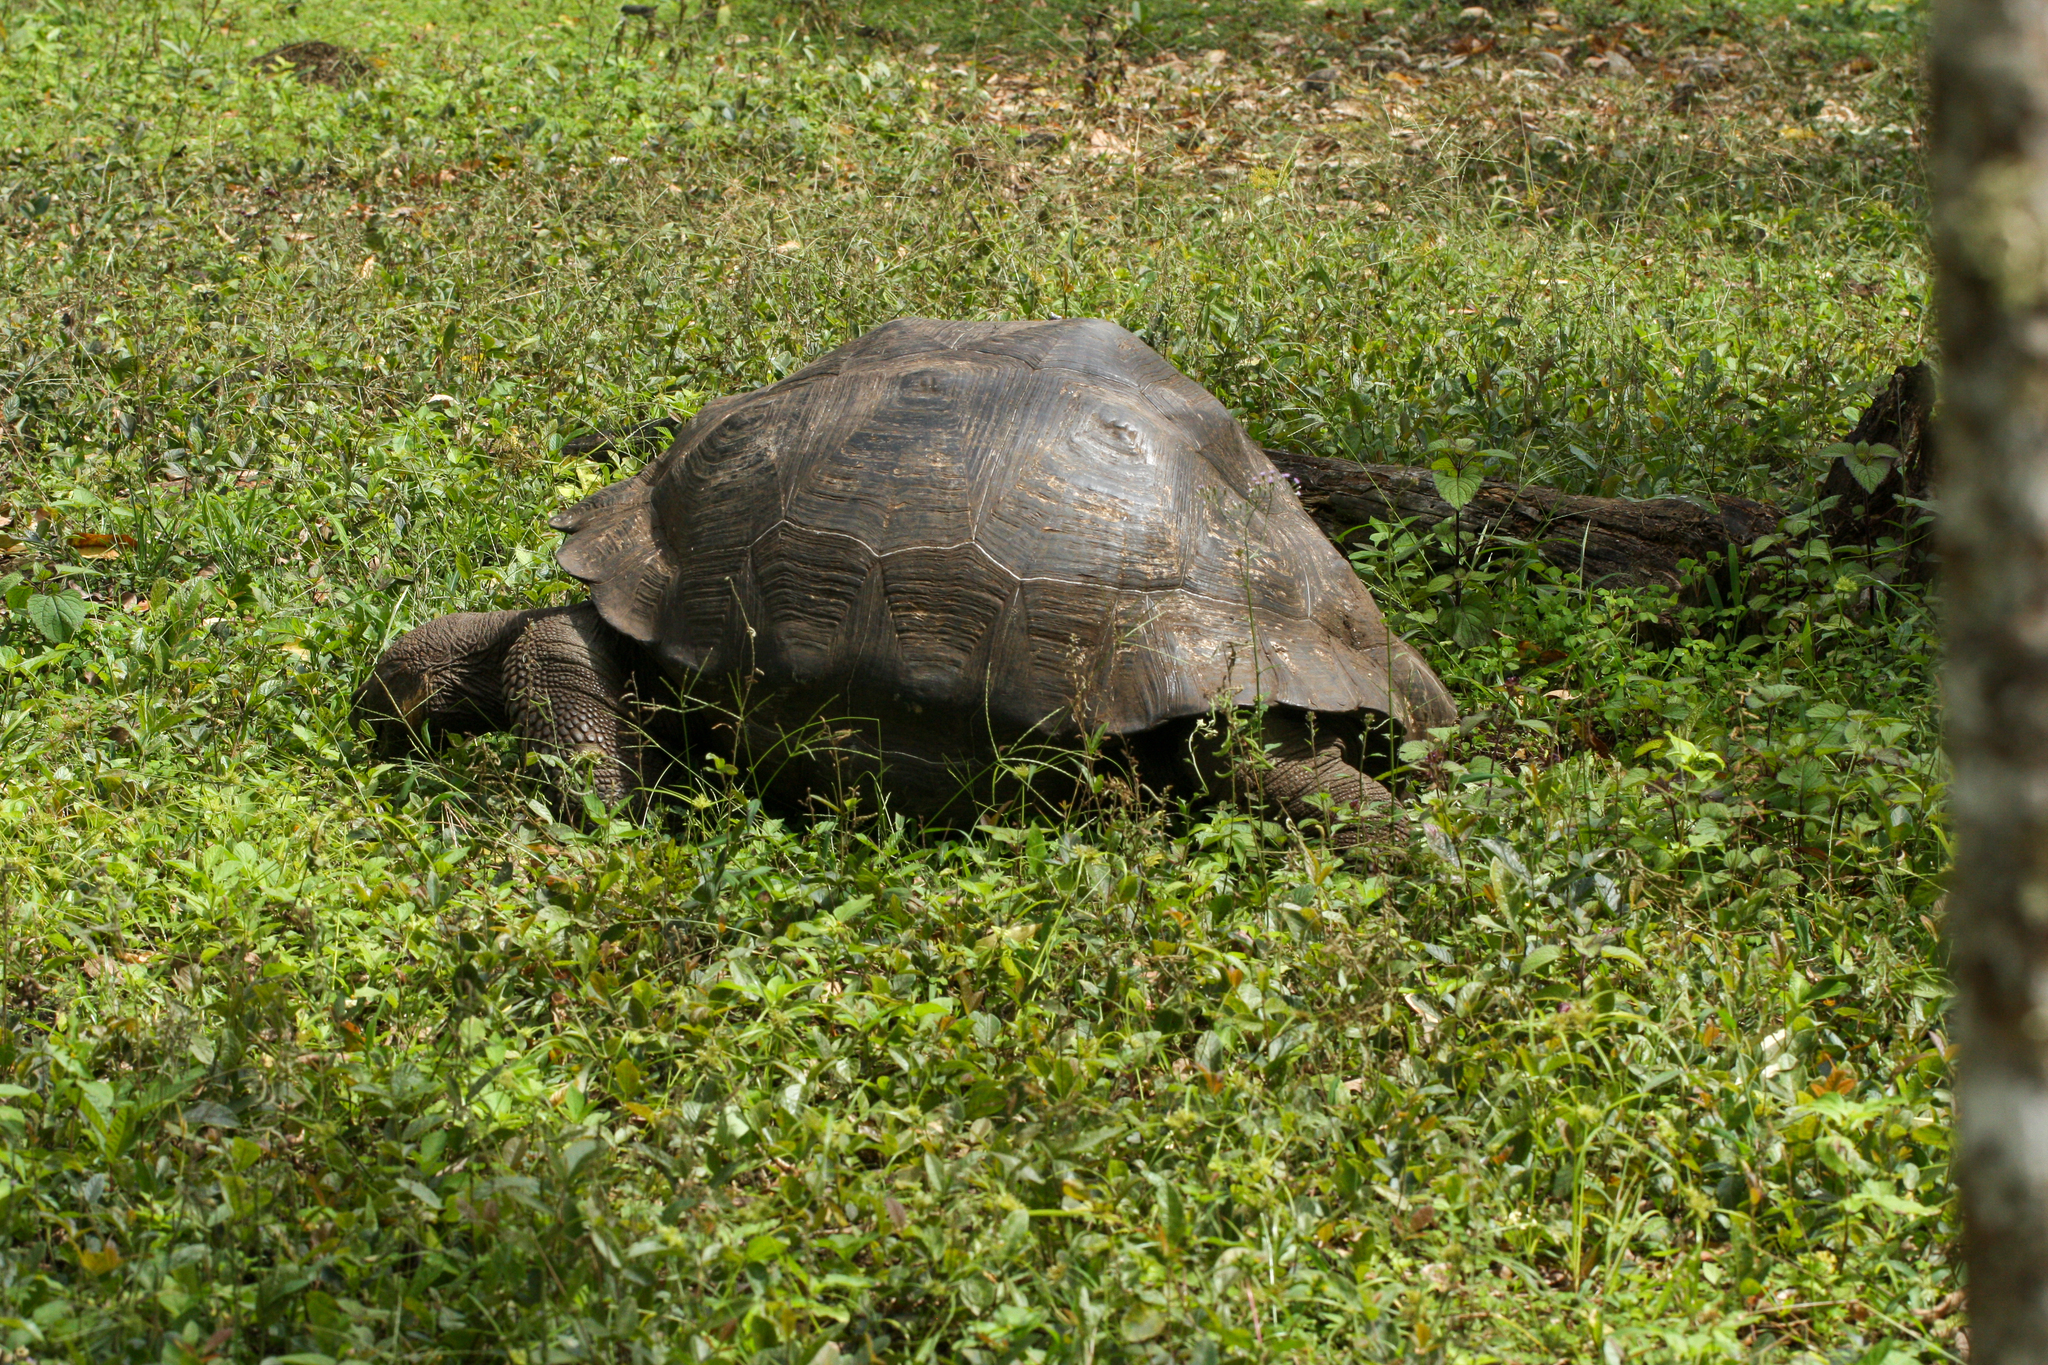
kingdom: Animalia
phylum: Chordata
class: Testudines
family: Testudinidae
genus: Chelonoidis
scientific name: Chelonoidis porteri
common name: Indefatigable island giant tortoise
